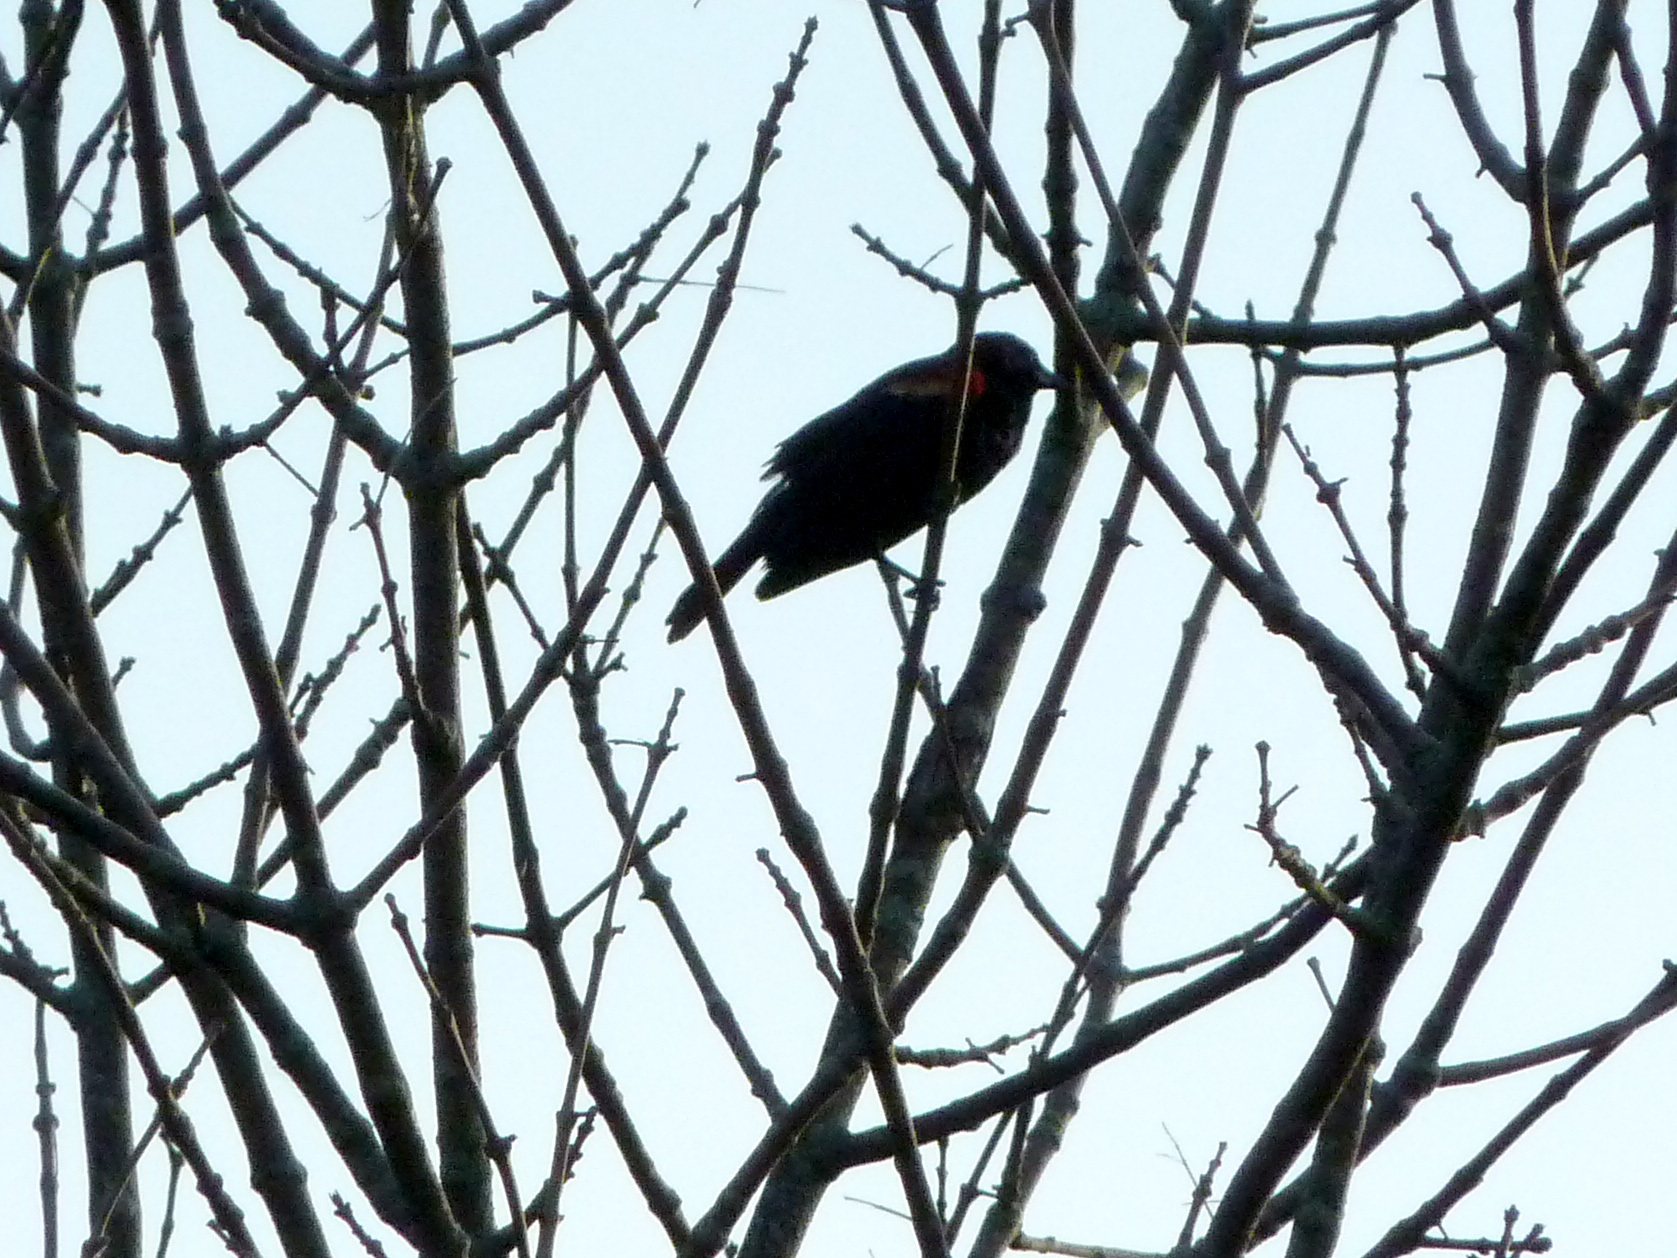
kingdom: Animalia
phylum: Chordata
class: Aves
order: Passeriformes
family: Icteridae
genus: Agelaius
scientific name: Agelaius phoeniceus
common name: Red-winged blackbird
